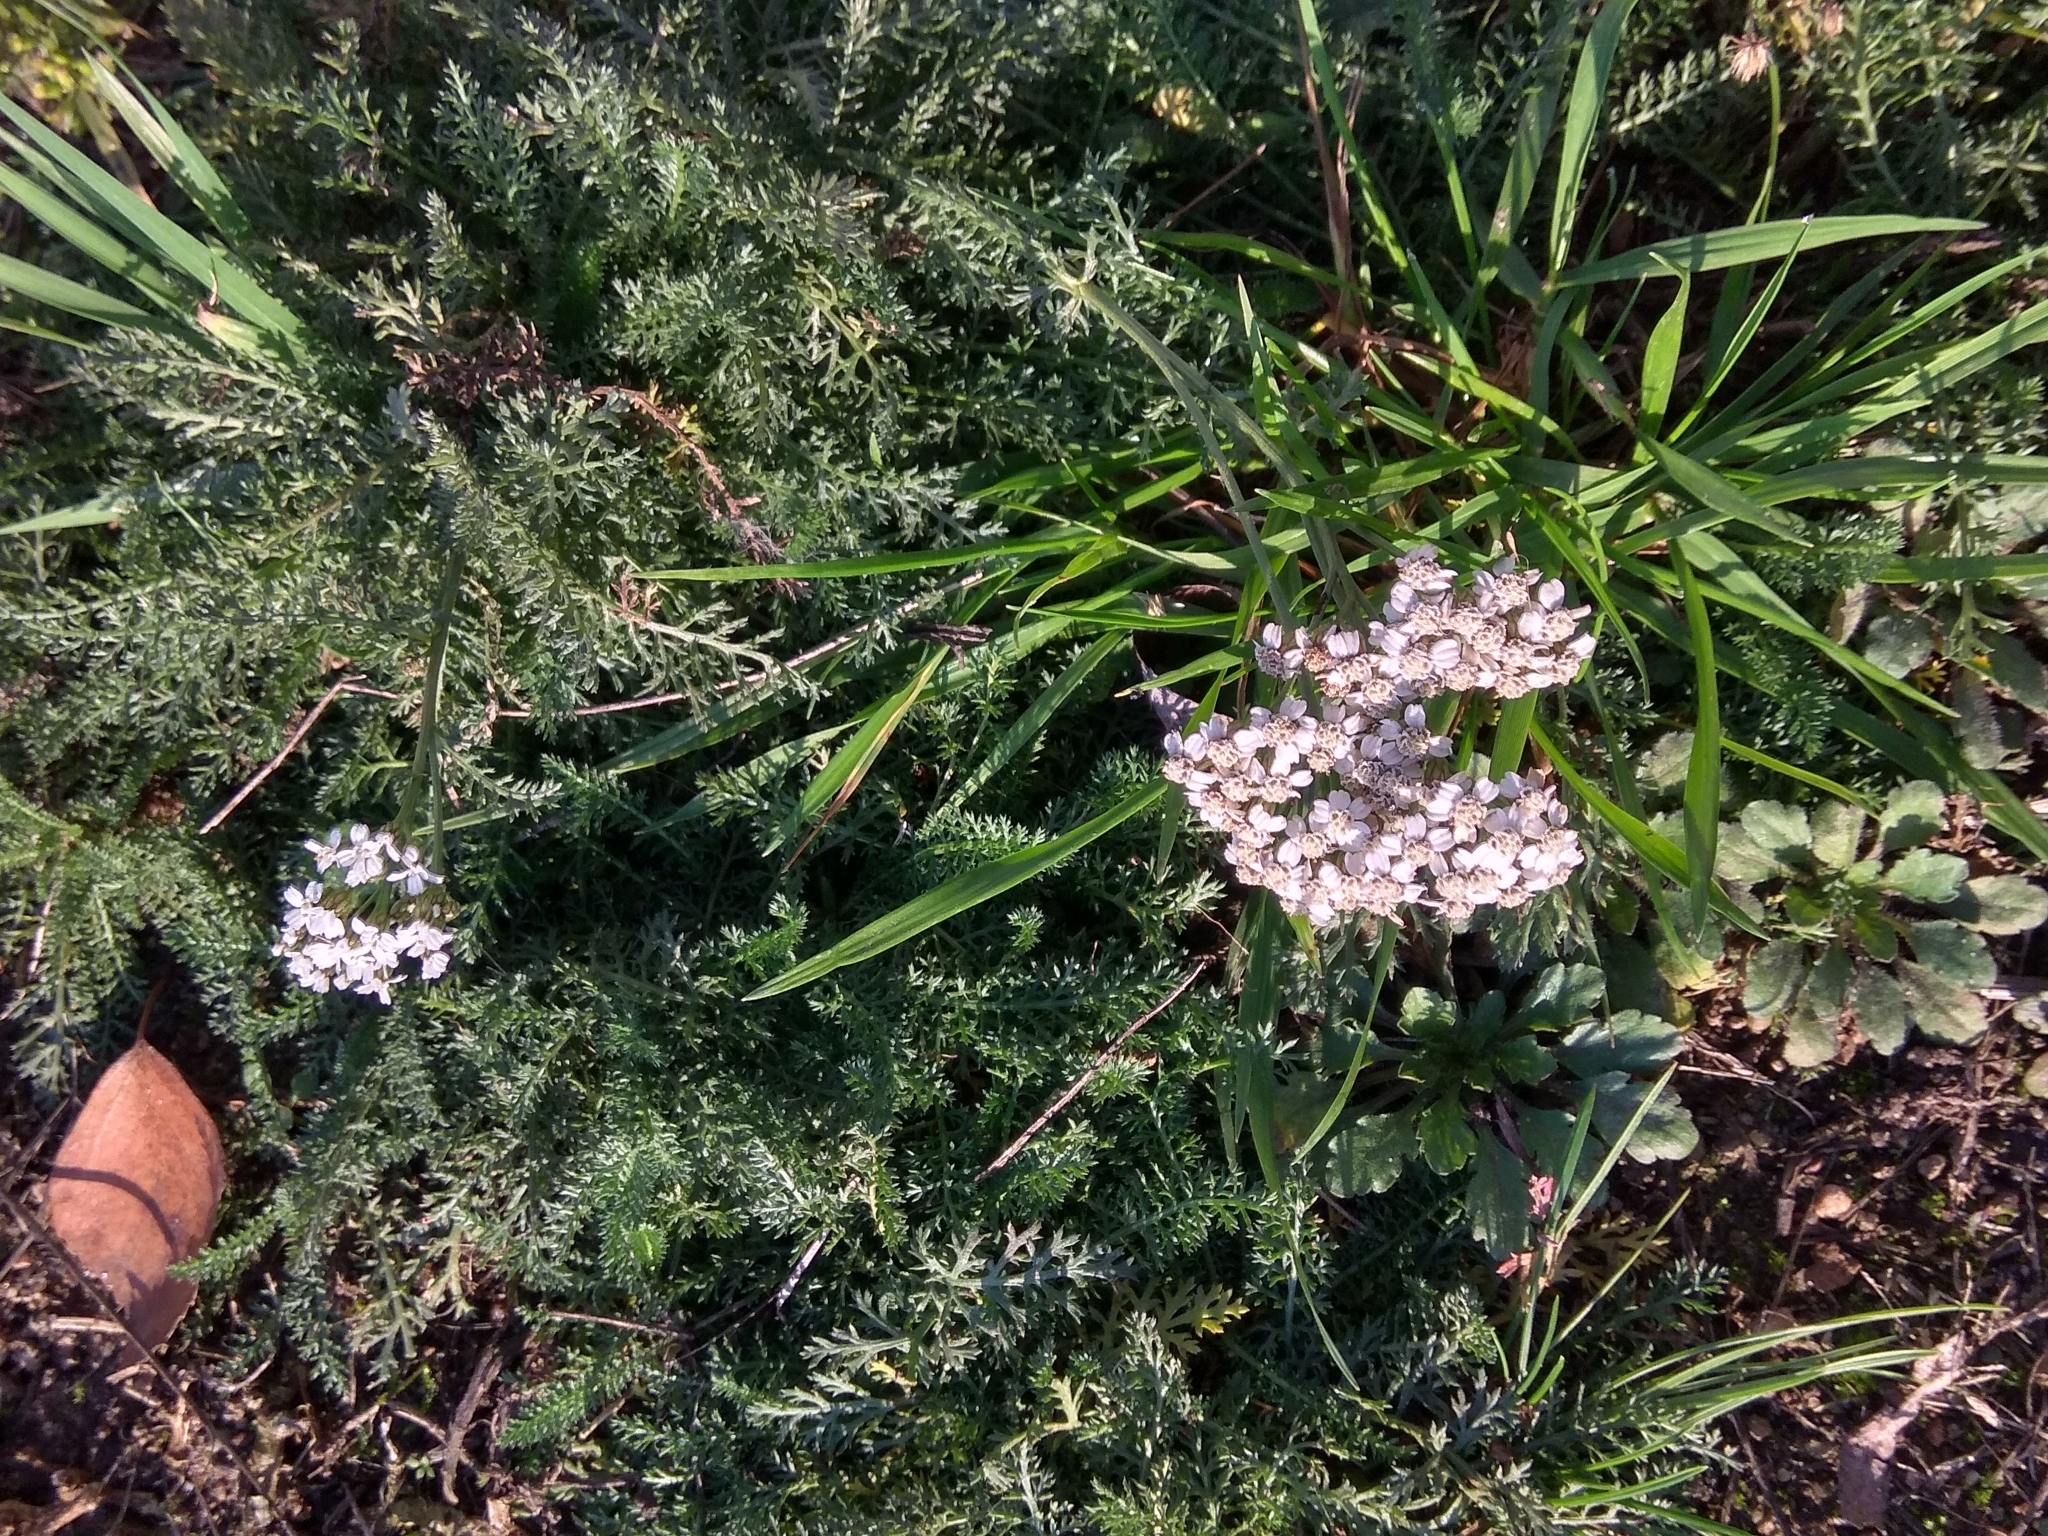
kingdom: Plantae
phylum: Tracheophyta
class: Magnoliopsida
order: Asterales
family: Asteraceae
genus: Achillea
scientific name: Achillea millefolium
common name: Yarrow
